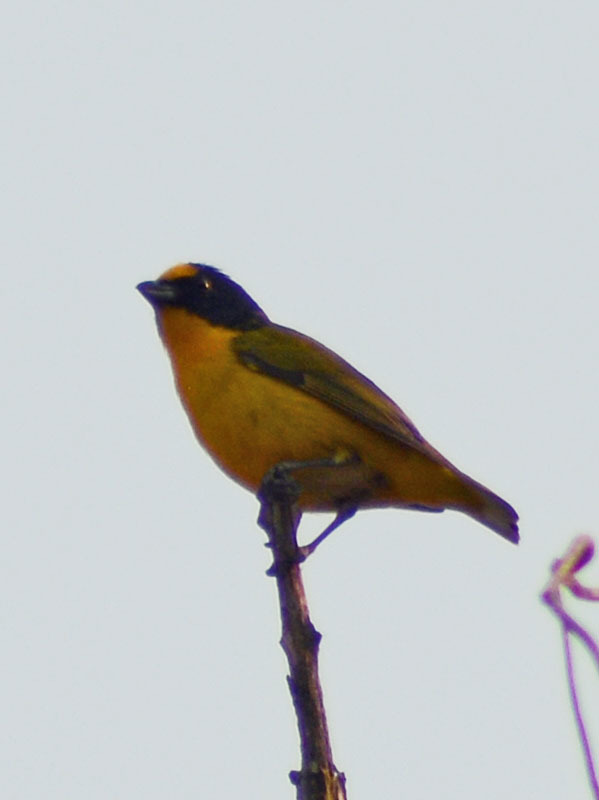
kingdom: Animalia
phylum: Chordata
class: Aves
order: Passeriformes
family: Fringillidae
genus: Euphonia
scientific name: Euphonia hirundinacea
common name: Yellow-throated euphonia
